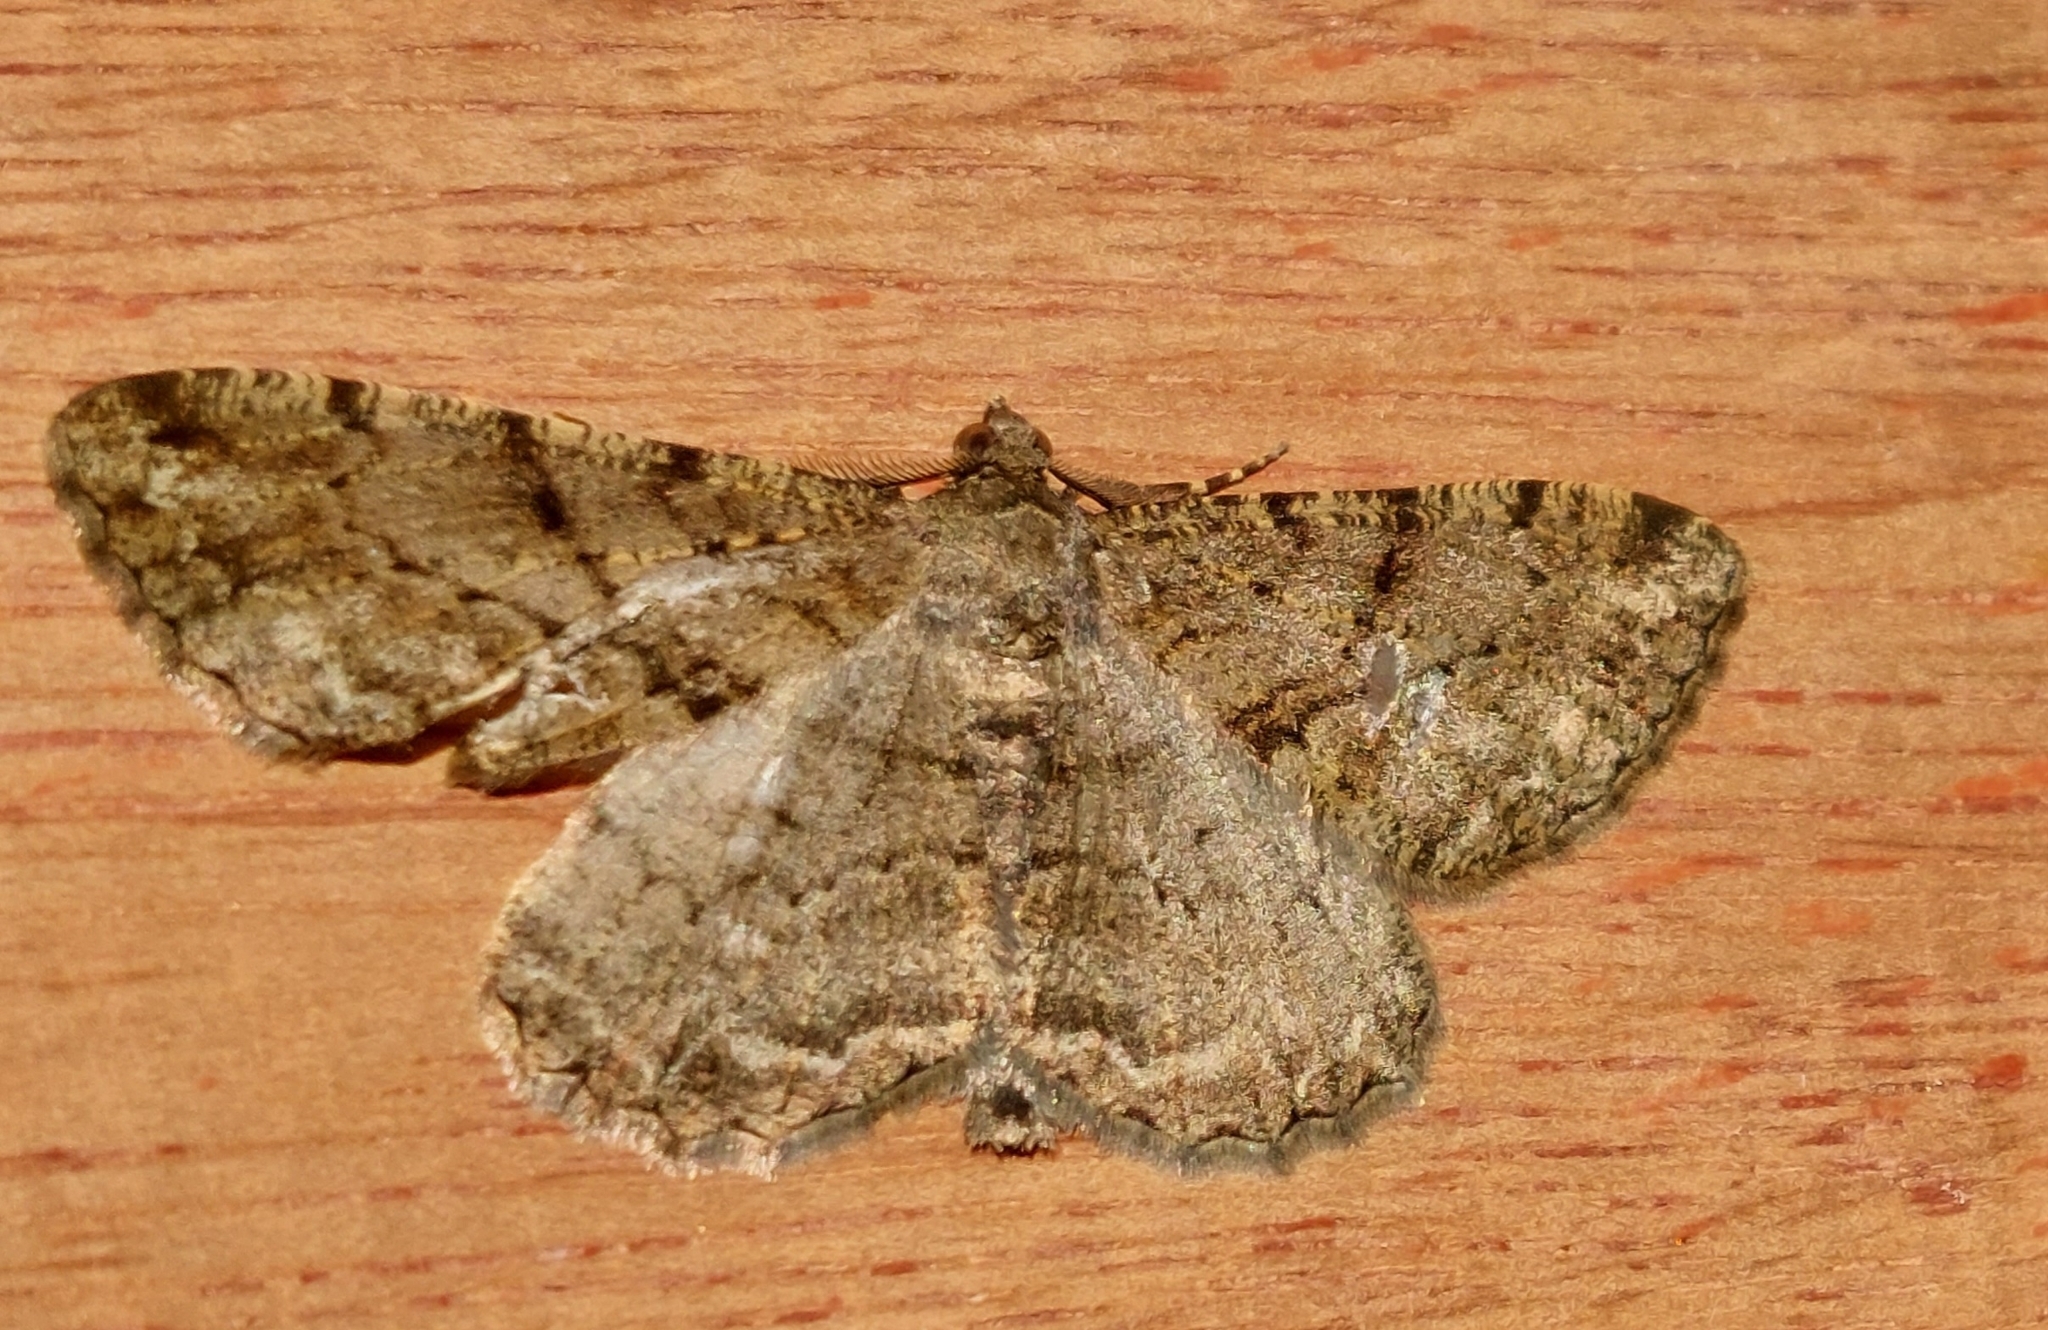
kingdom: Animalia
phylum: Arthropoda
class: Insecta
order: Lepidoptera
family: Geometridae
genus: Peribatodes
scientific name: Peribatodes rhomboidaria
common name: Willow beauty
